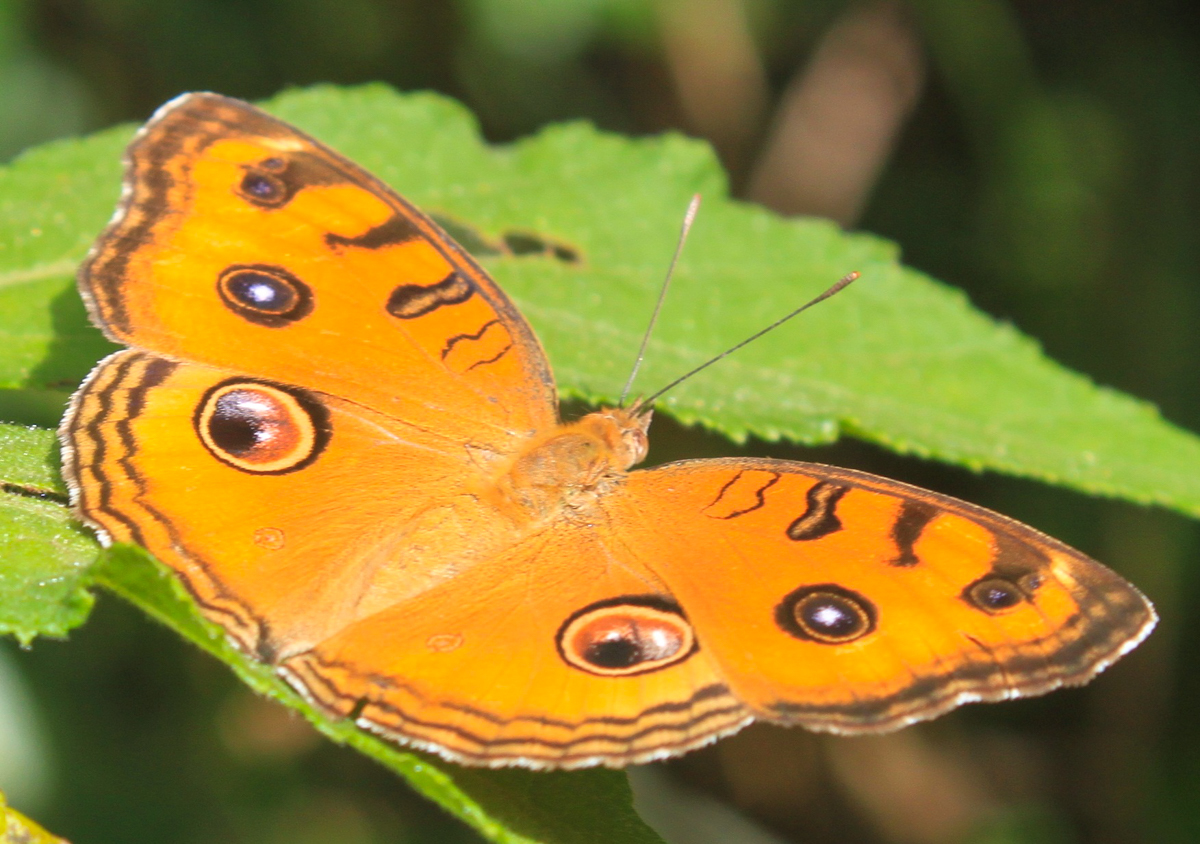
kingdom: Animalia
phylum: Arthropoda
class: Insecta
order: Lepidoptera
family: Nymphalidae
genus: Junonia
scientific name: Junonia almana
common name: Peacock pansy
